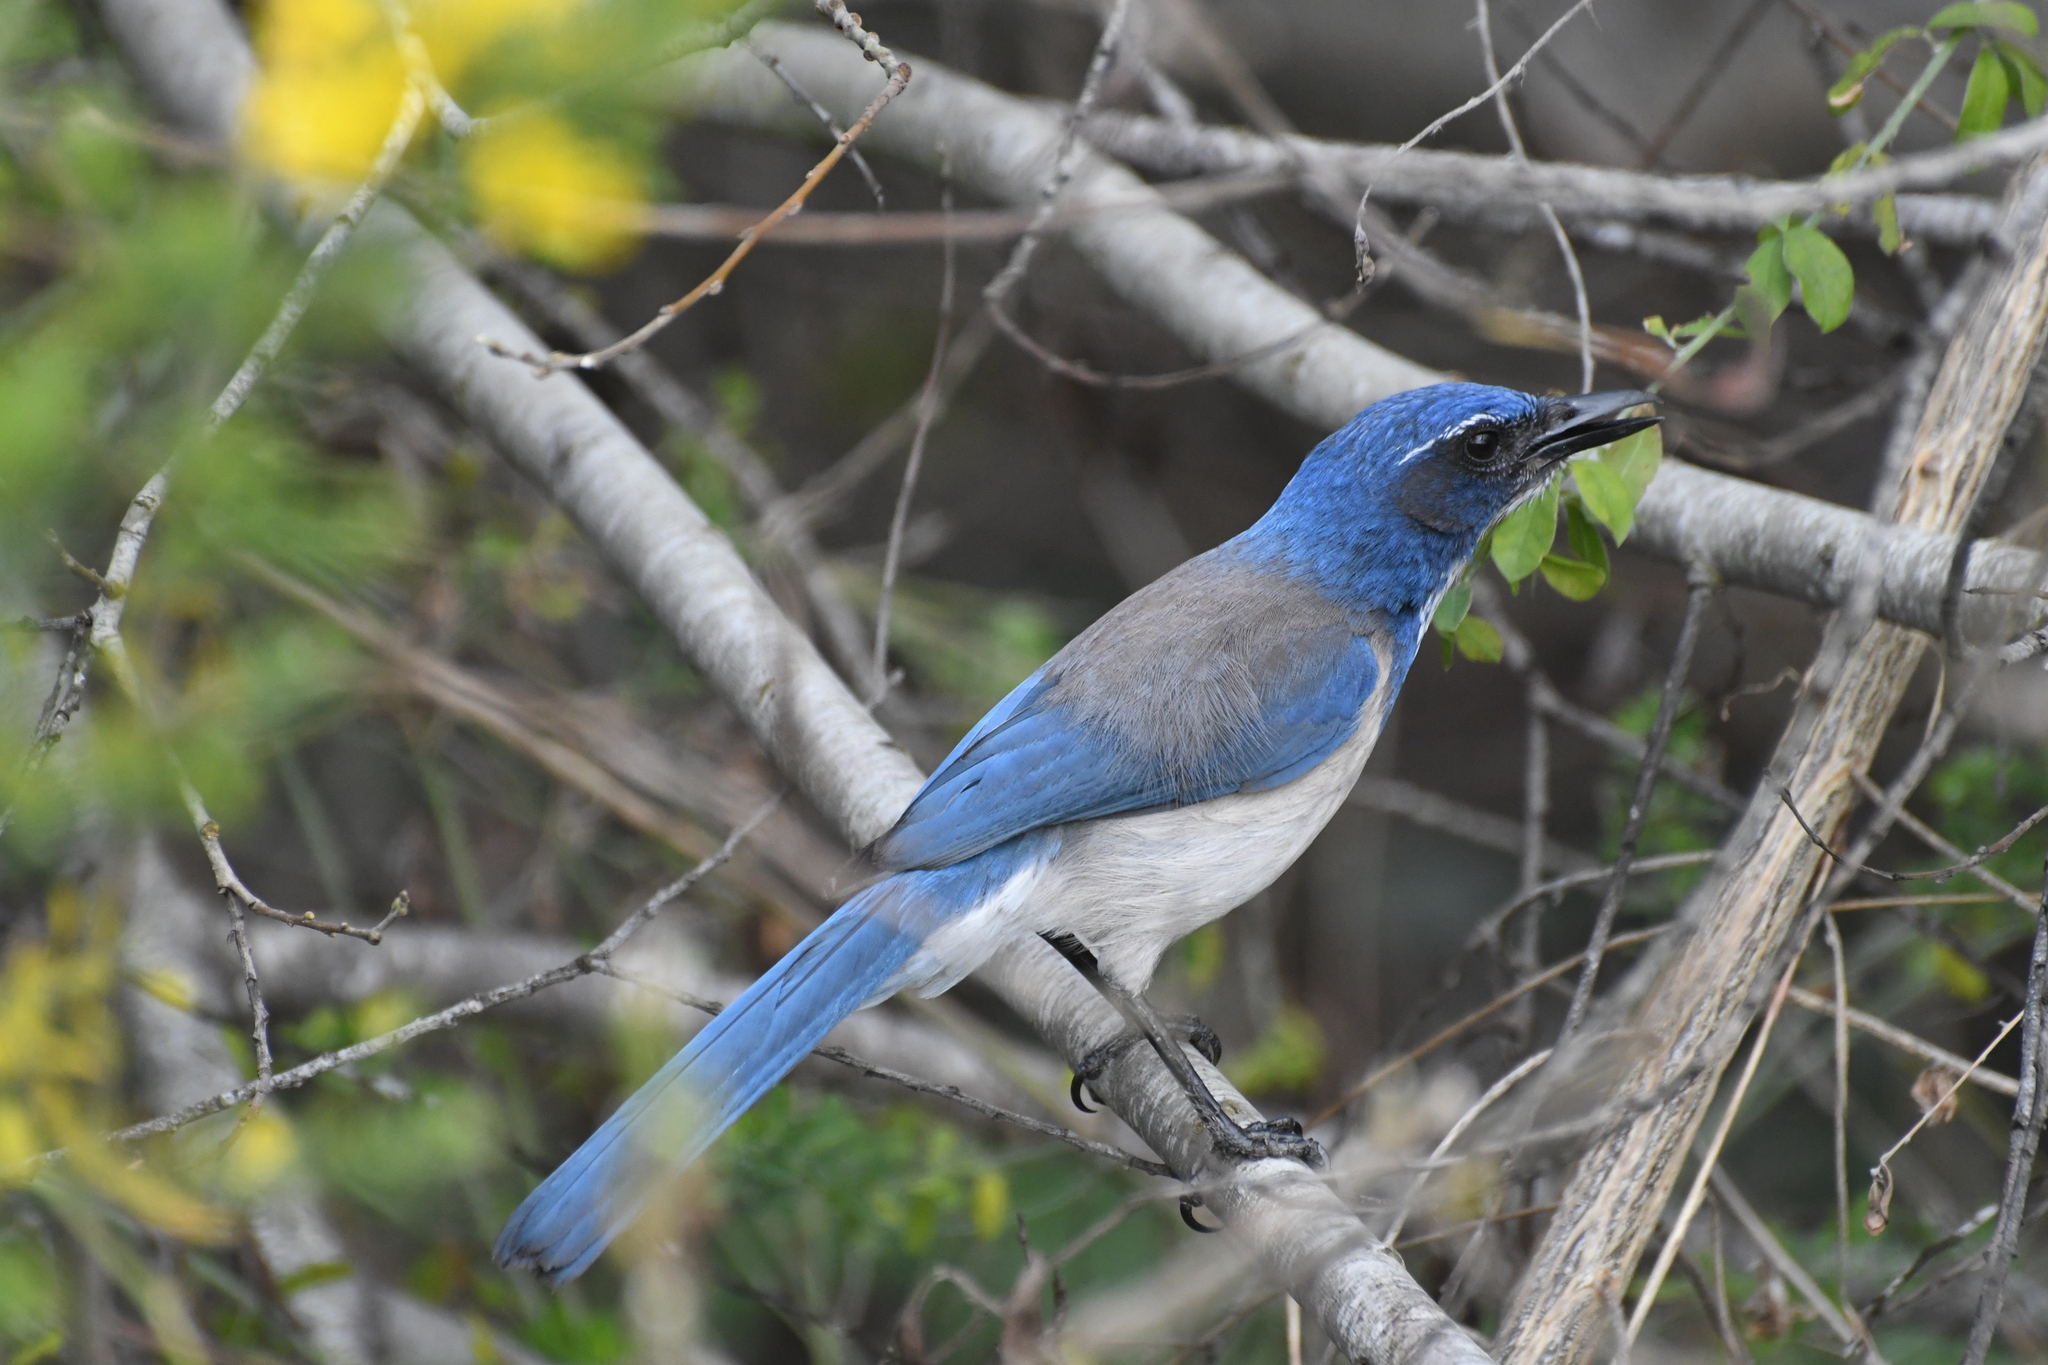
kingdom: Animalia
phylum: Chordata
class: Aves
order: Passeriformes
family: Corvidae
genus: Aphelocoma
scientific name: Aphelocoma californica
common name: California scrub-jay
